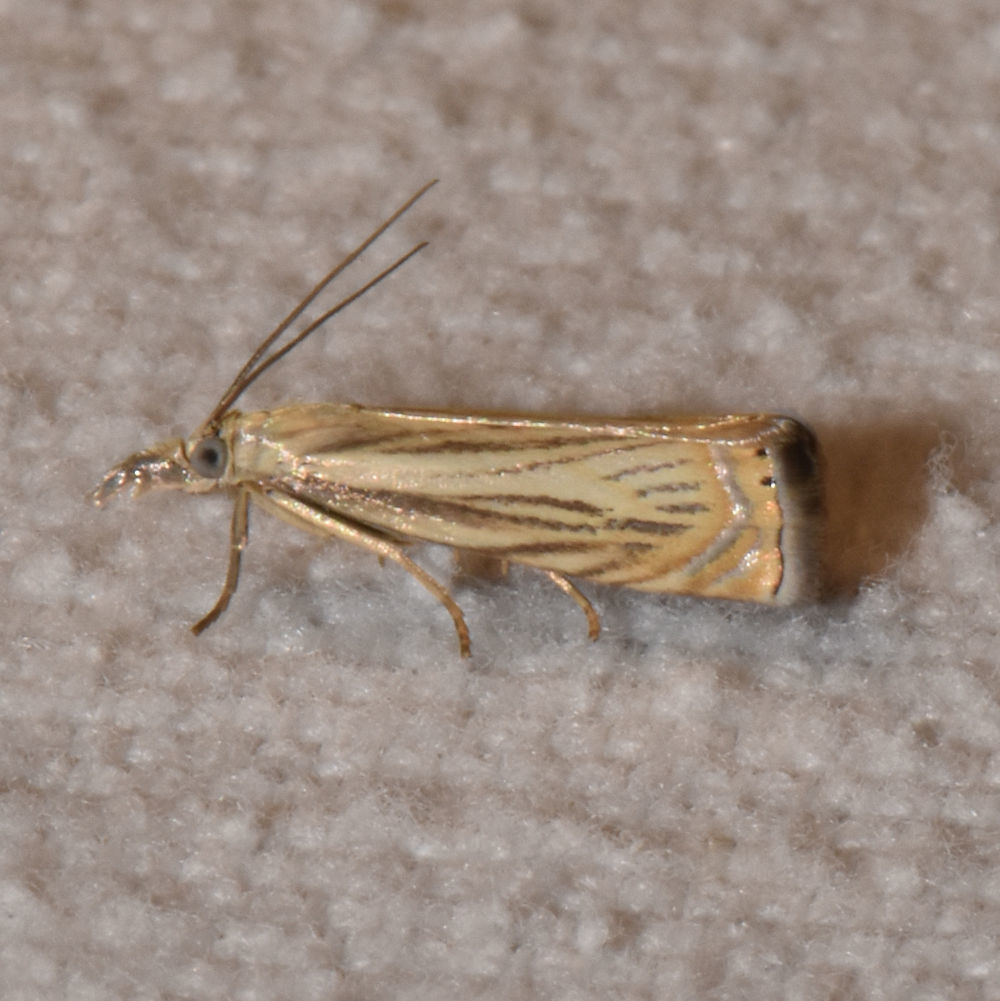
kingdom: Animalia
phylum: Arthropoda
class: Insecta
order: Lepidoptera
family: Crambidae
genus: Chrysoteuchia
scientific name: Chrysoteuchia topiarius
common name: Topiary grass-veneer
